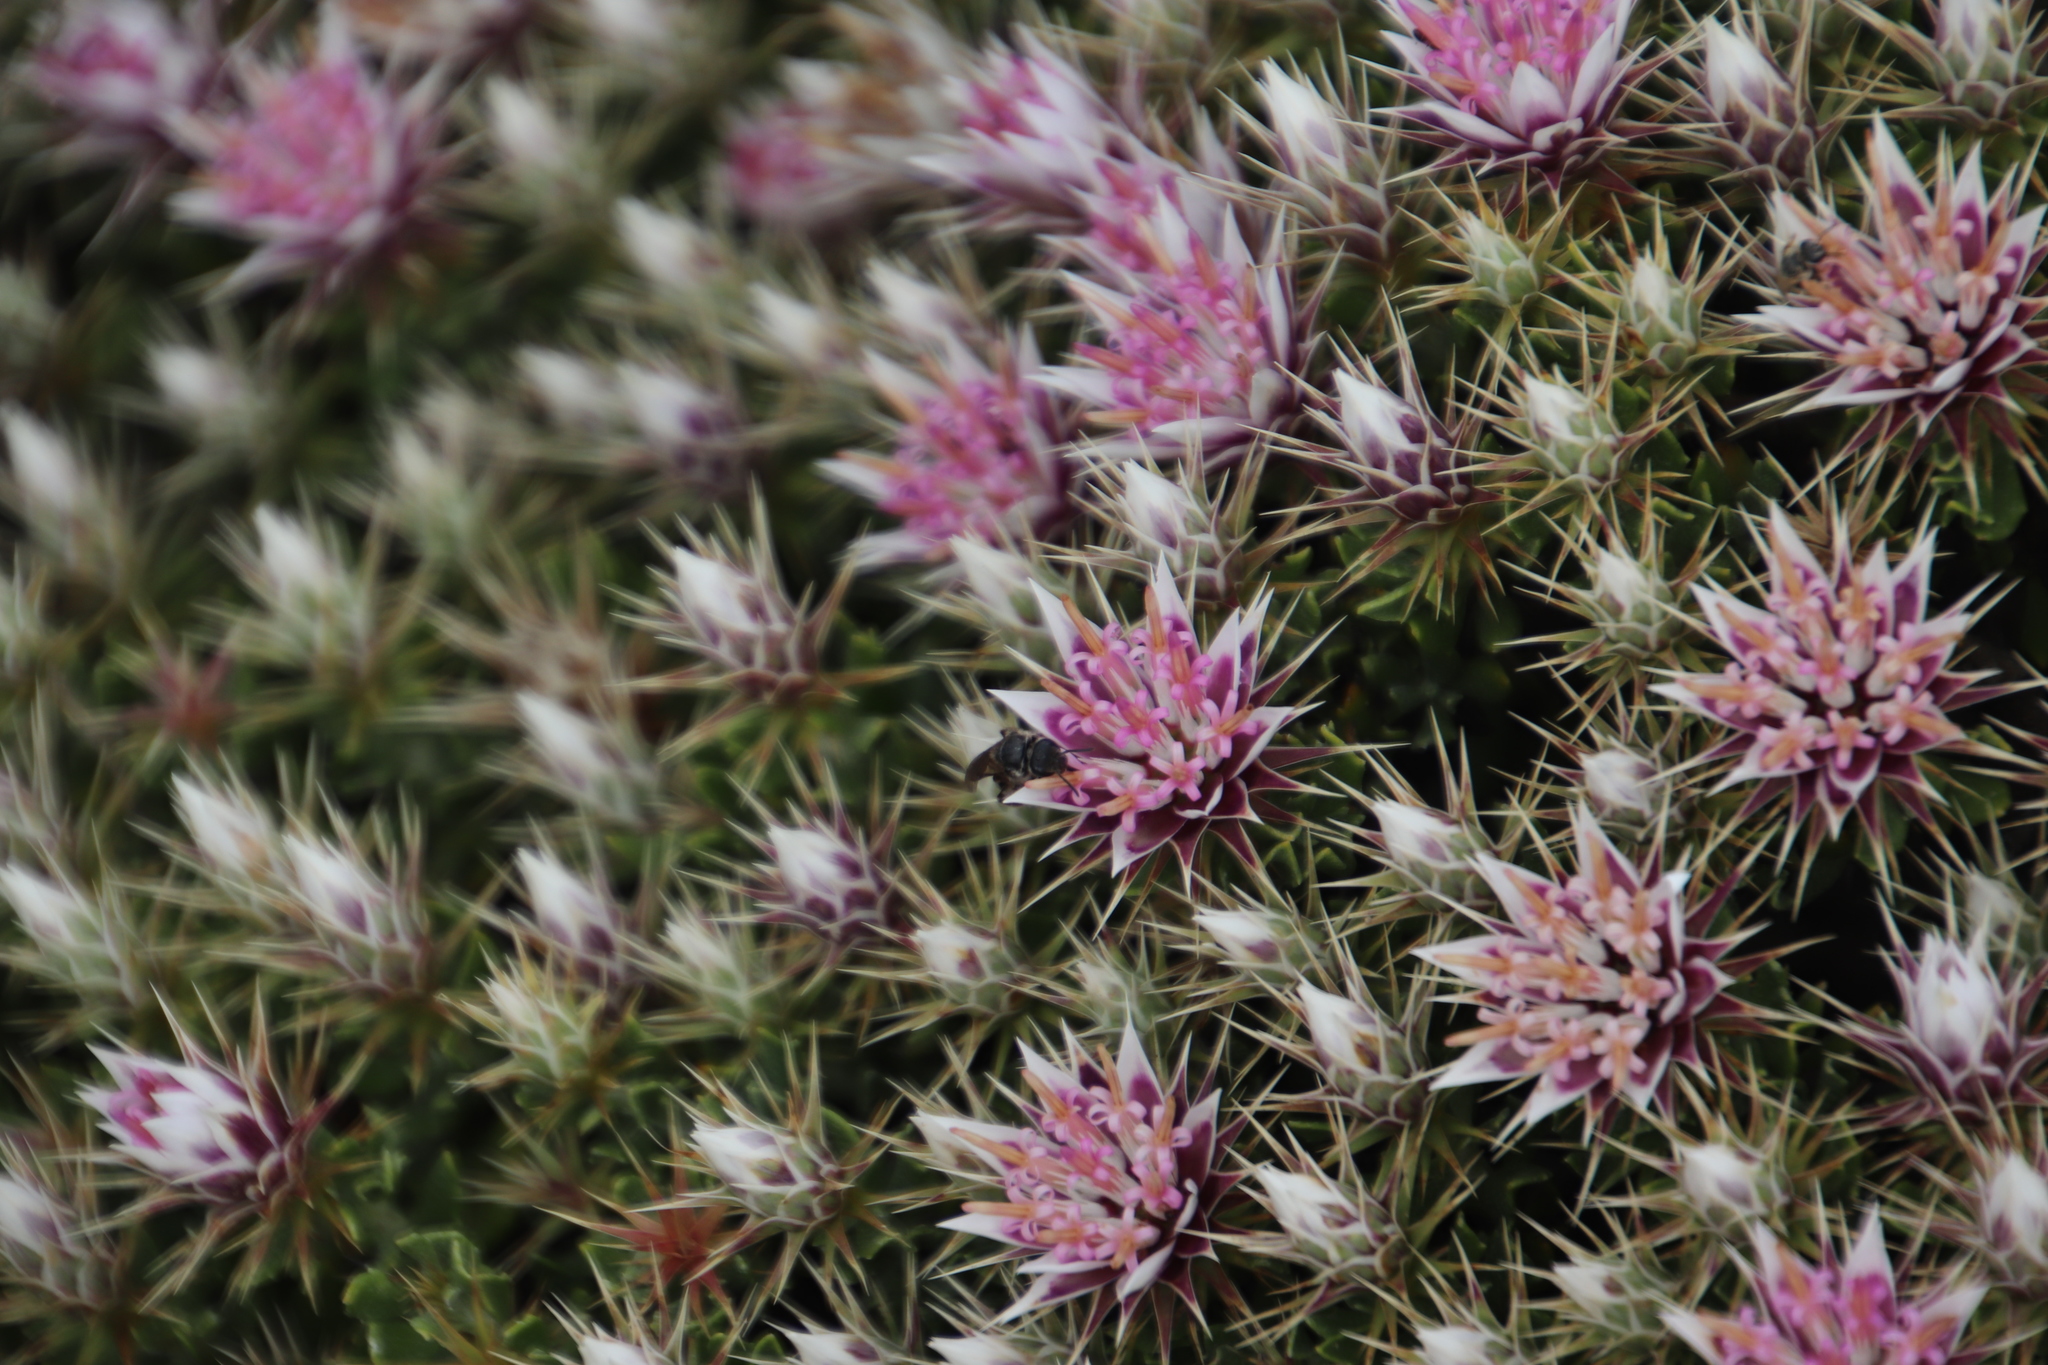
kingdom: Plantae
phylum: Tracheophyta
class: Magnoliopsida
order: Asterales
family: Asteraceae
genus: Macledium
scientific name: Macledium spinosum
